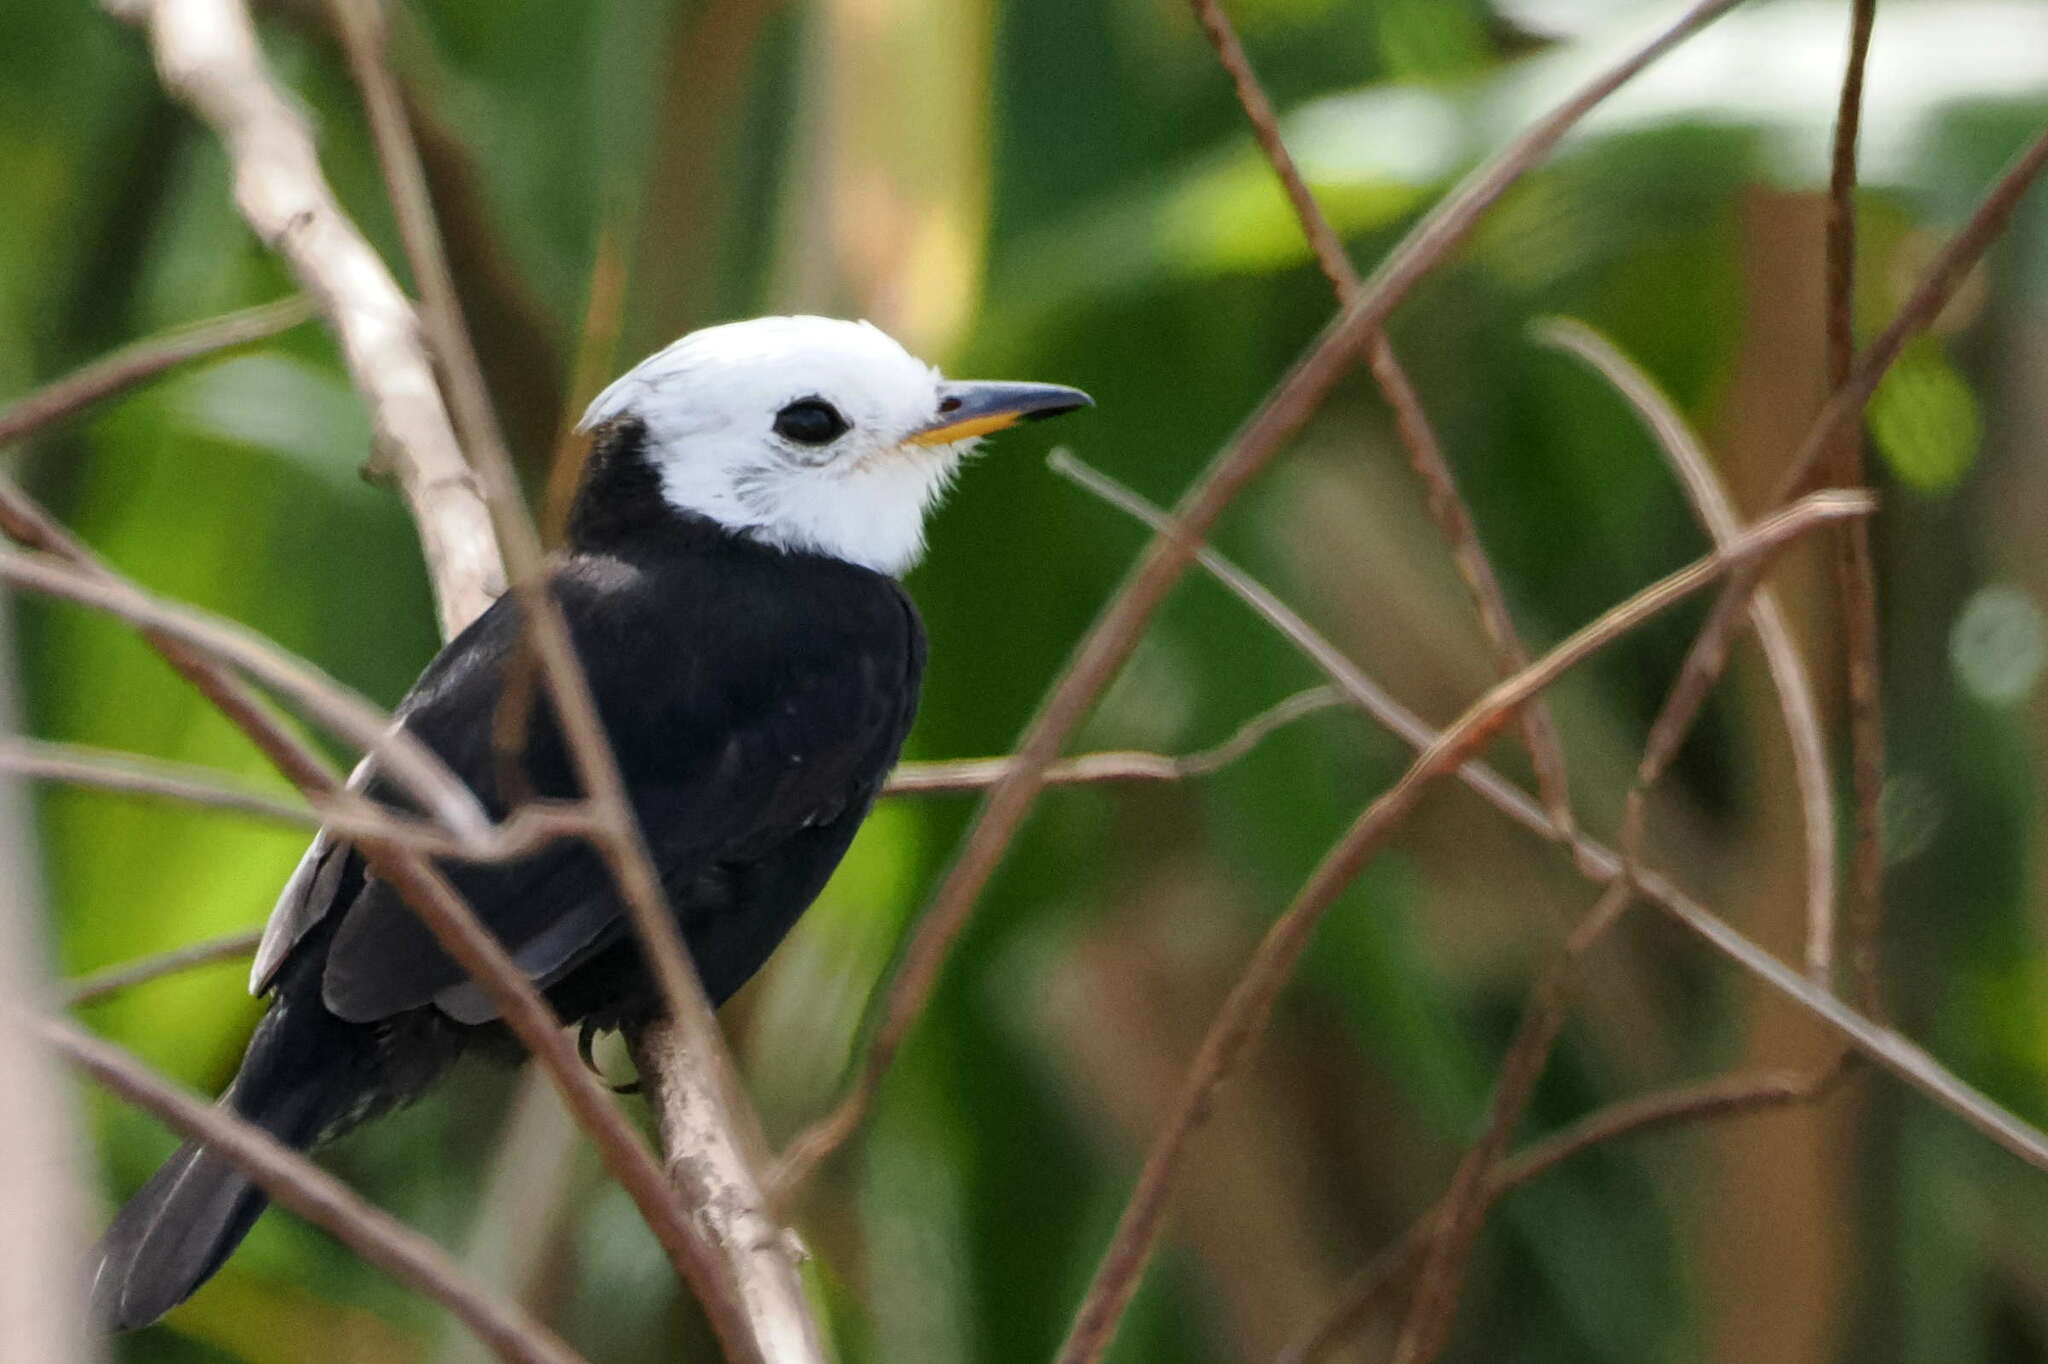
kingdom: Animalia
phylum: Chordata
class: Aves
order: Passeriformes
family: Tyrannidae
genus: Arundinicola
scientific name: Arundinicola leucocephala
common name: White-headed marsh tyrant
